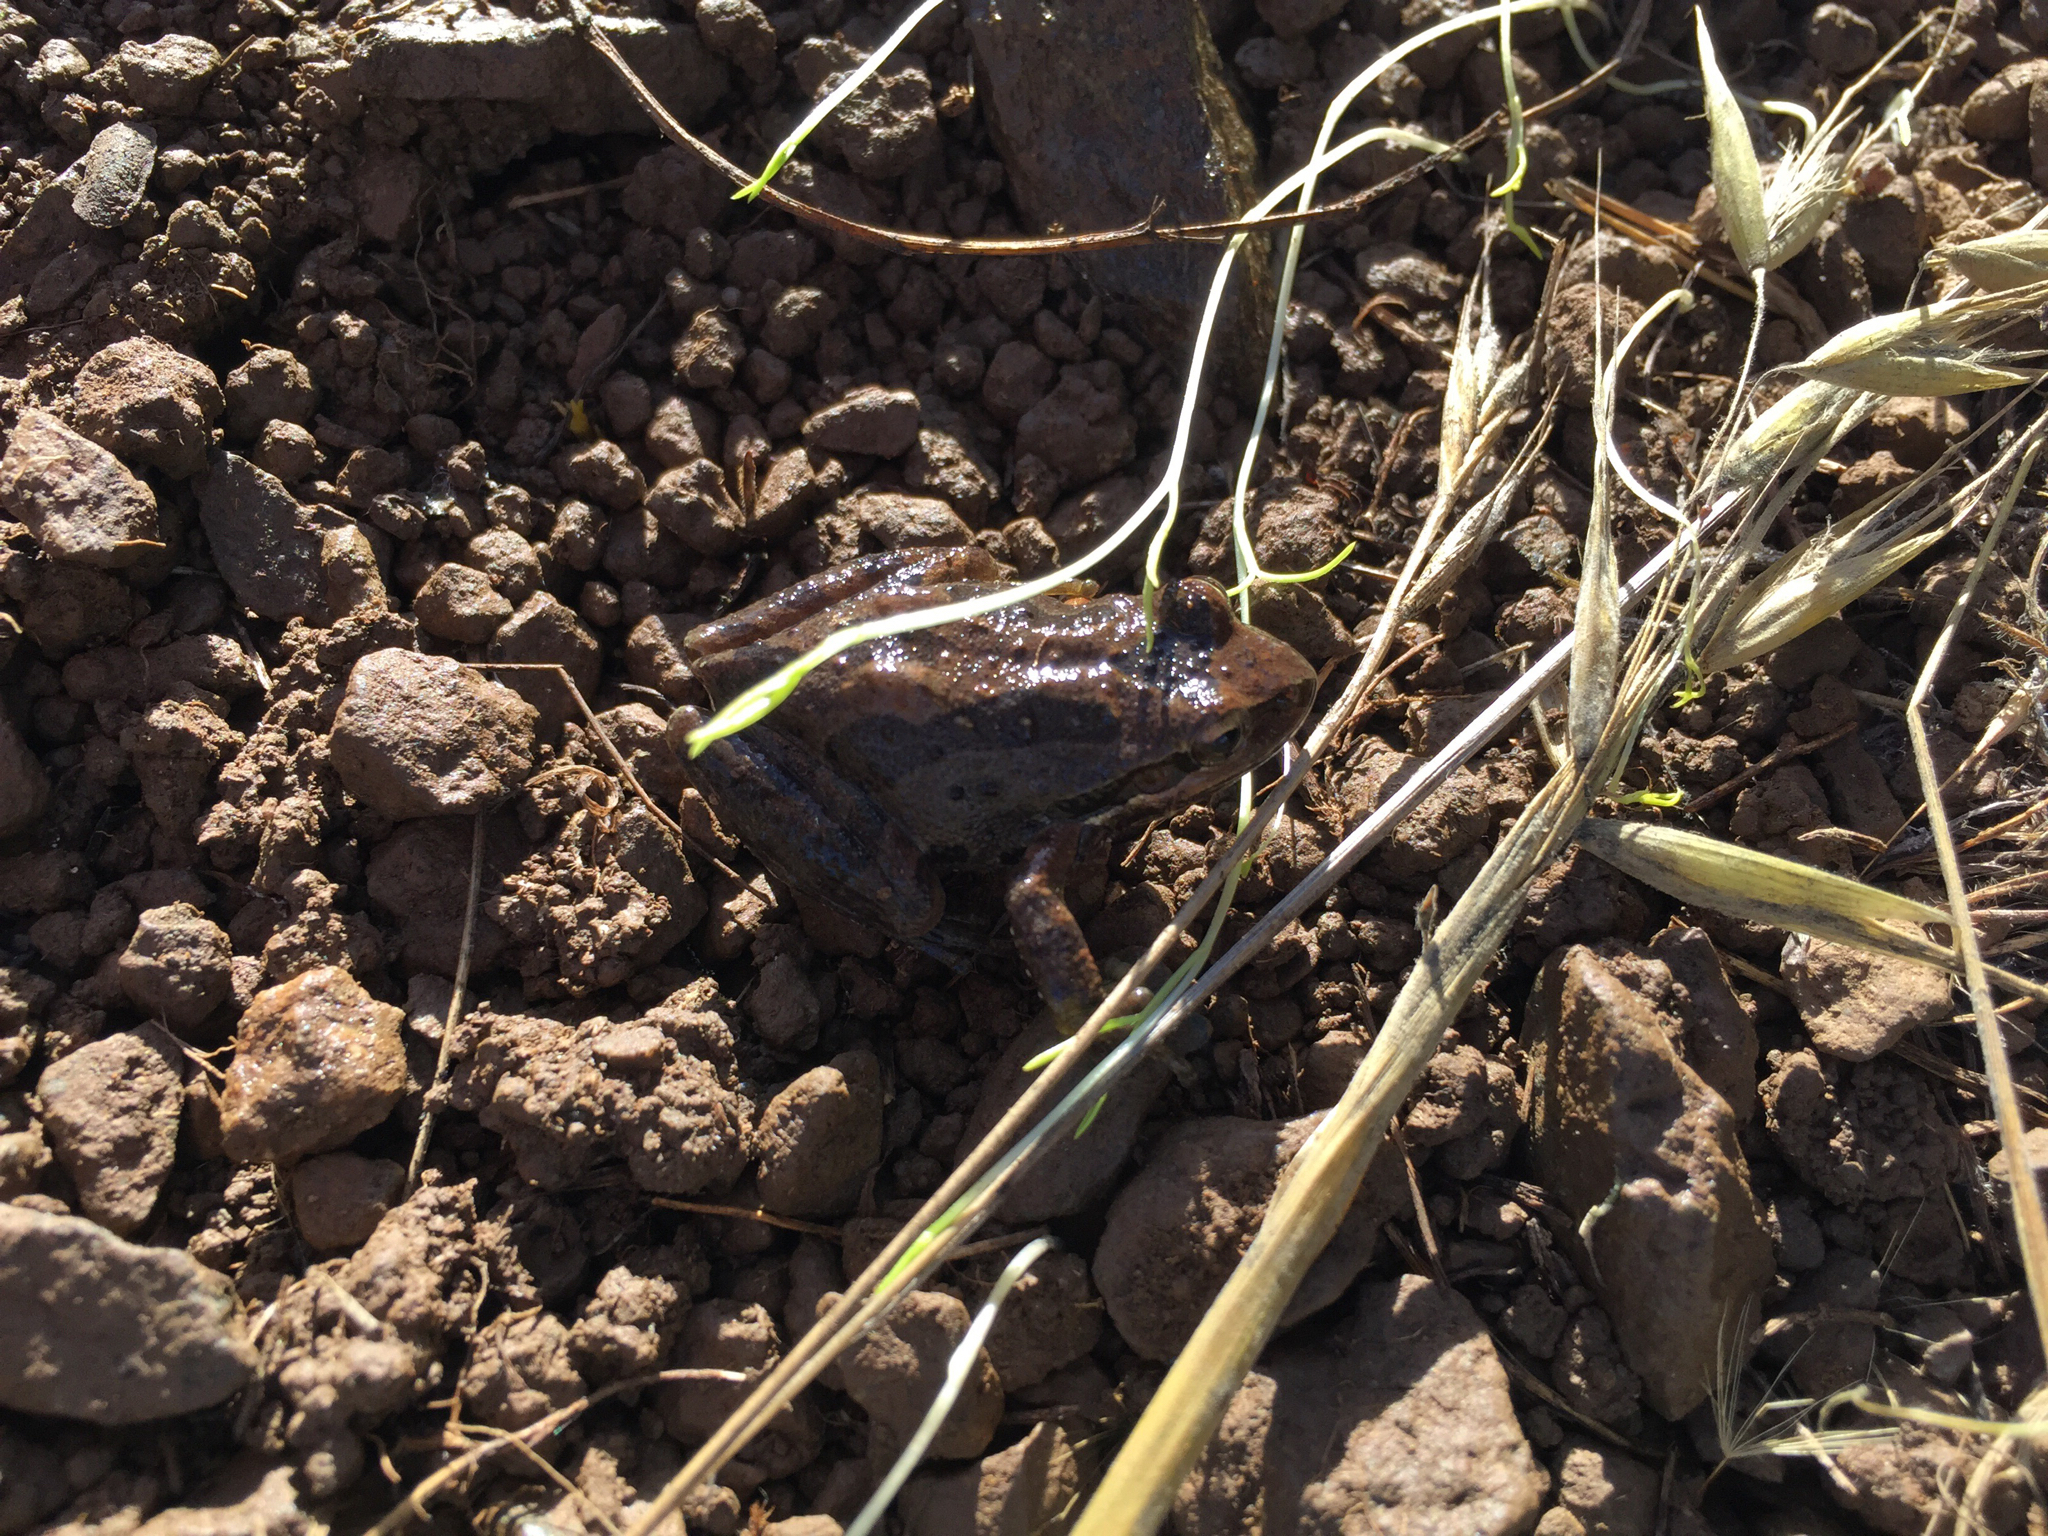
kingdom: Animalia
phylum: Chordata
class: Amphibia
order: Anura
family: Hylidae
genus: Pseudacris
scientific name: Pseudacris regilla
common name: Pacific chorus frog
